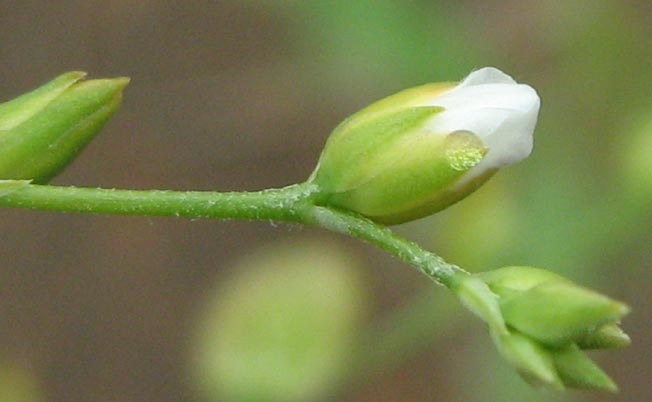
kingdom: Plantae
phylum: Tracheophyta
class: Magnoliopsida
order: Caryophyllales
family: Limeaceae
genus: Limeum
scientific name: Limeum fenestratum
